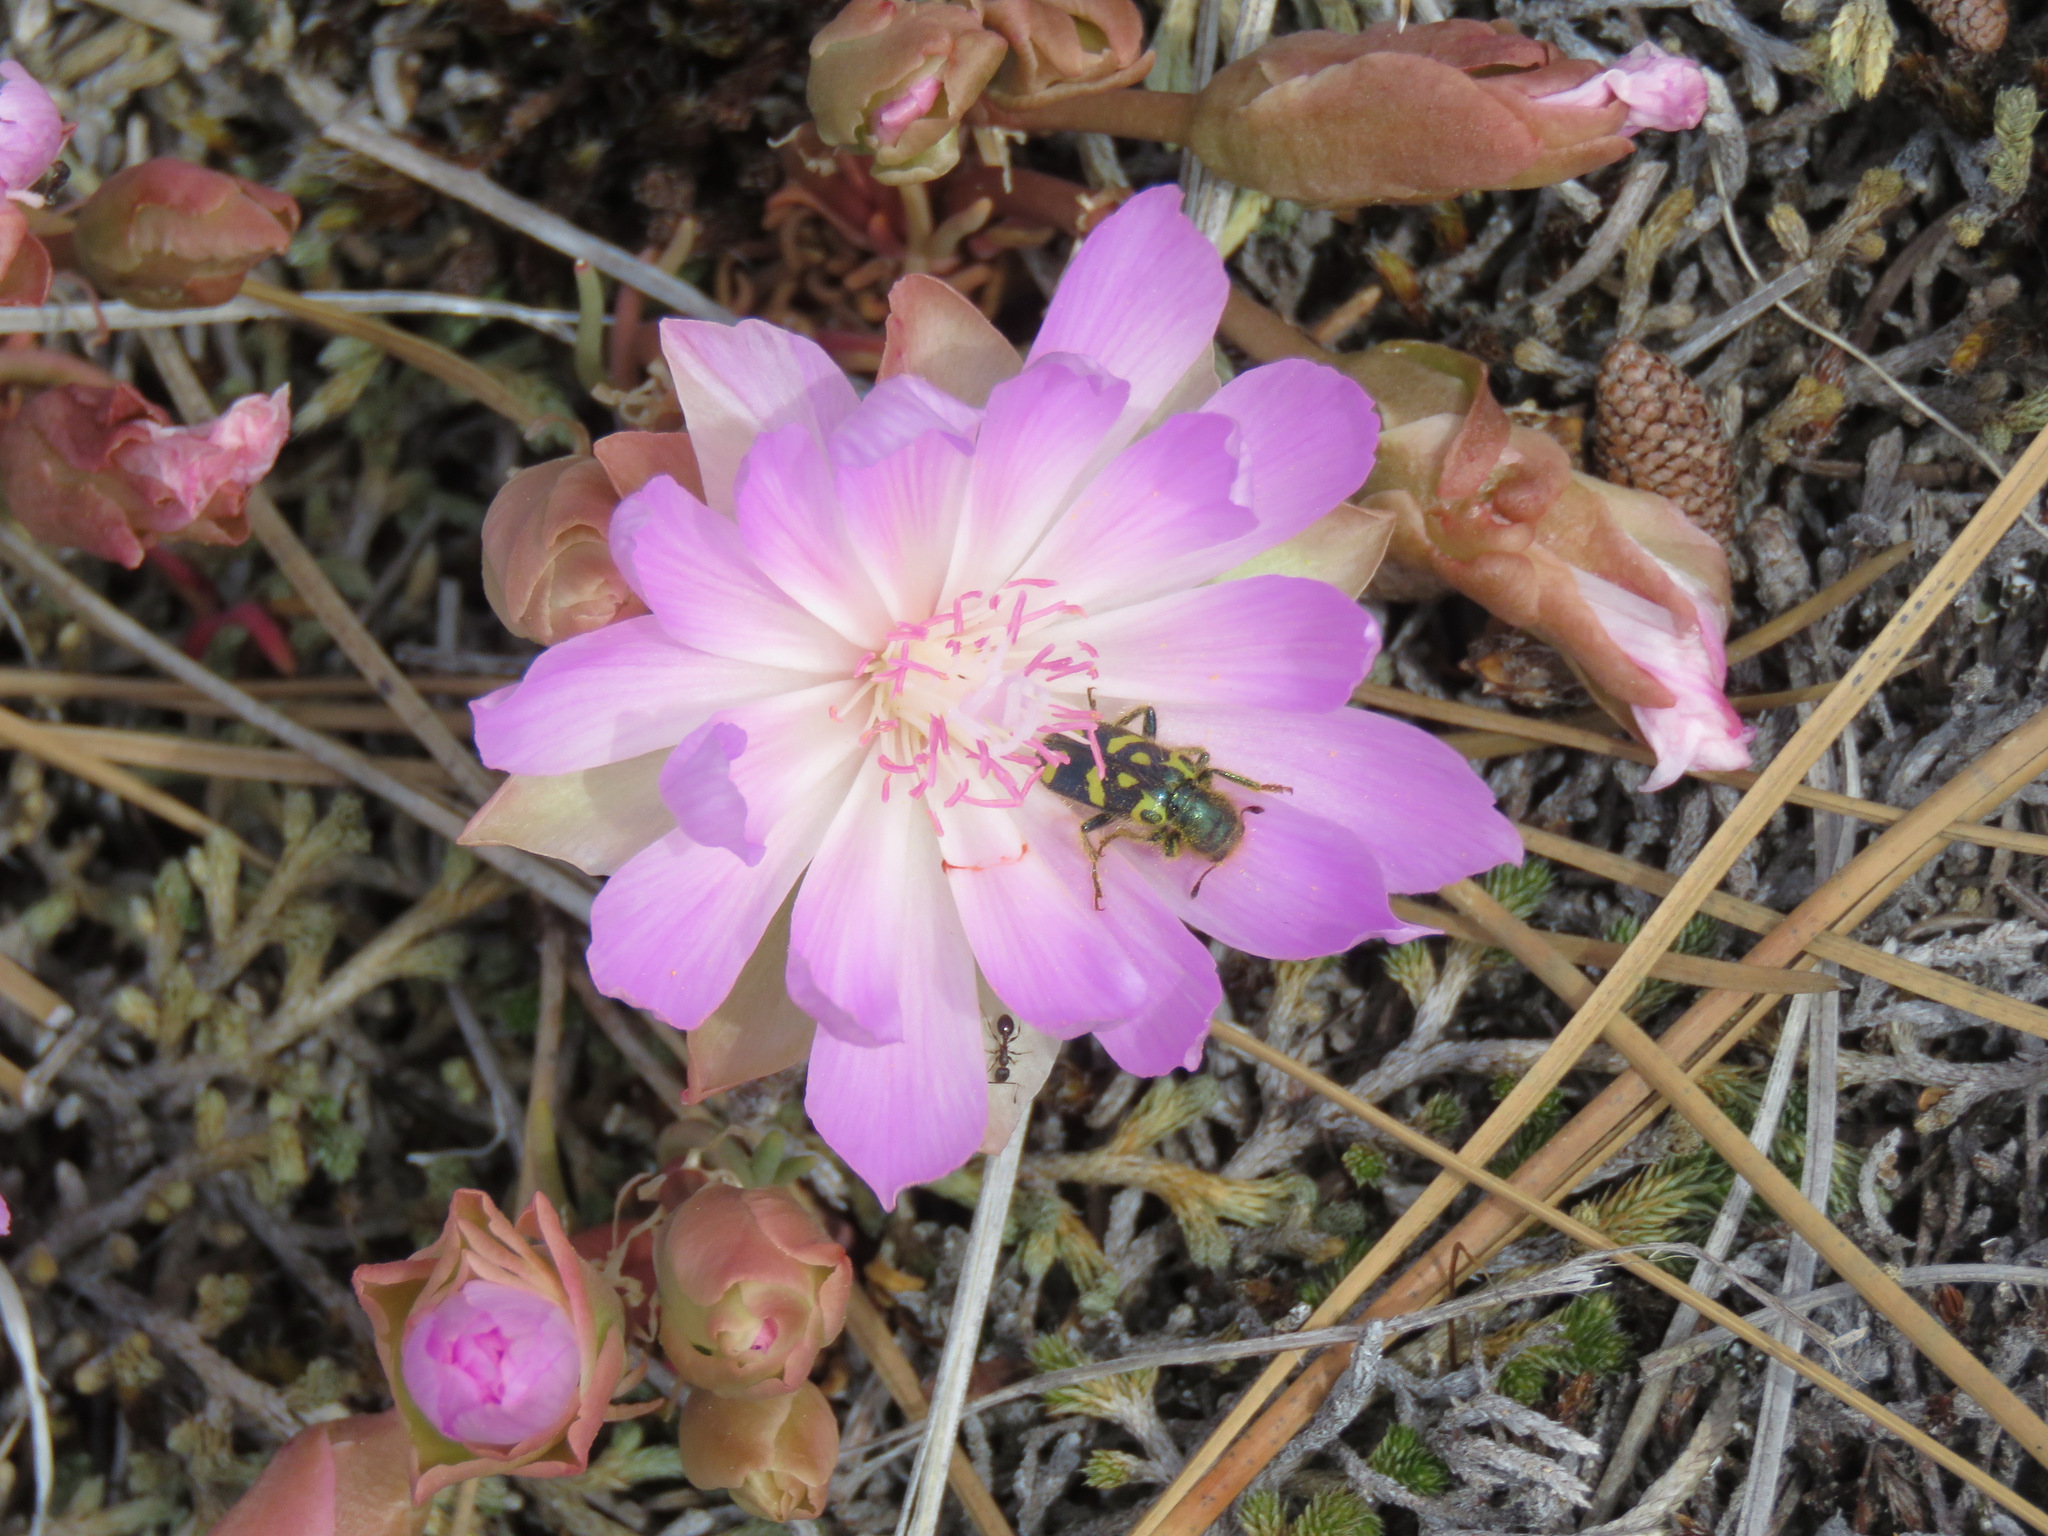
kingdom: Animalia
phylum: Arthropoda
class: Insecta
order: Coleoptera
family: Cleridae
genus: Trichodes
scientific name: Trichodes ornatus
